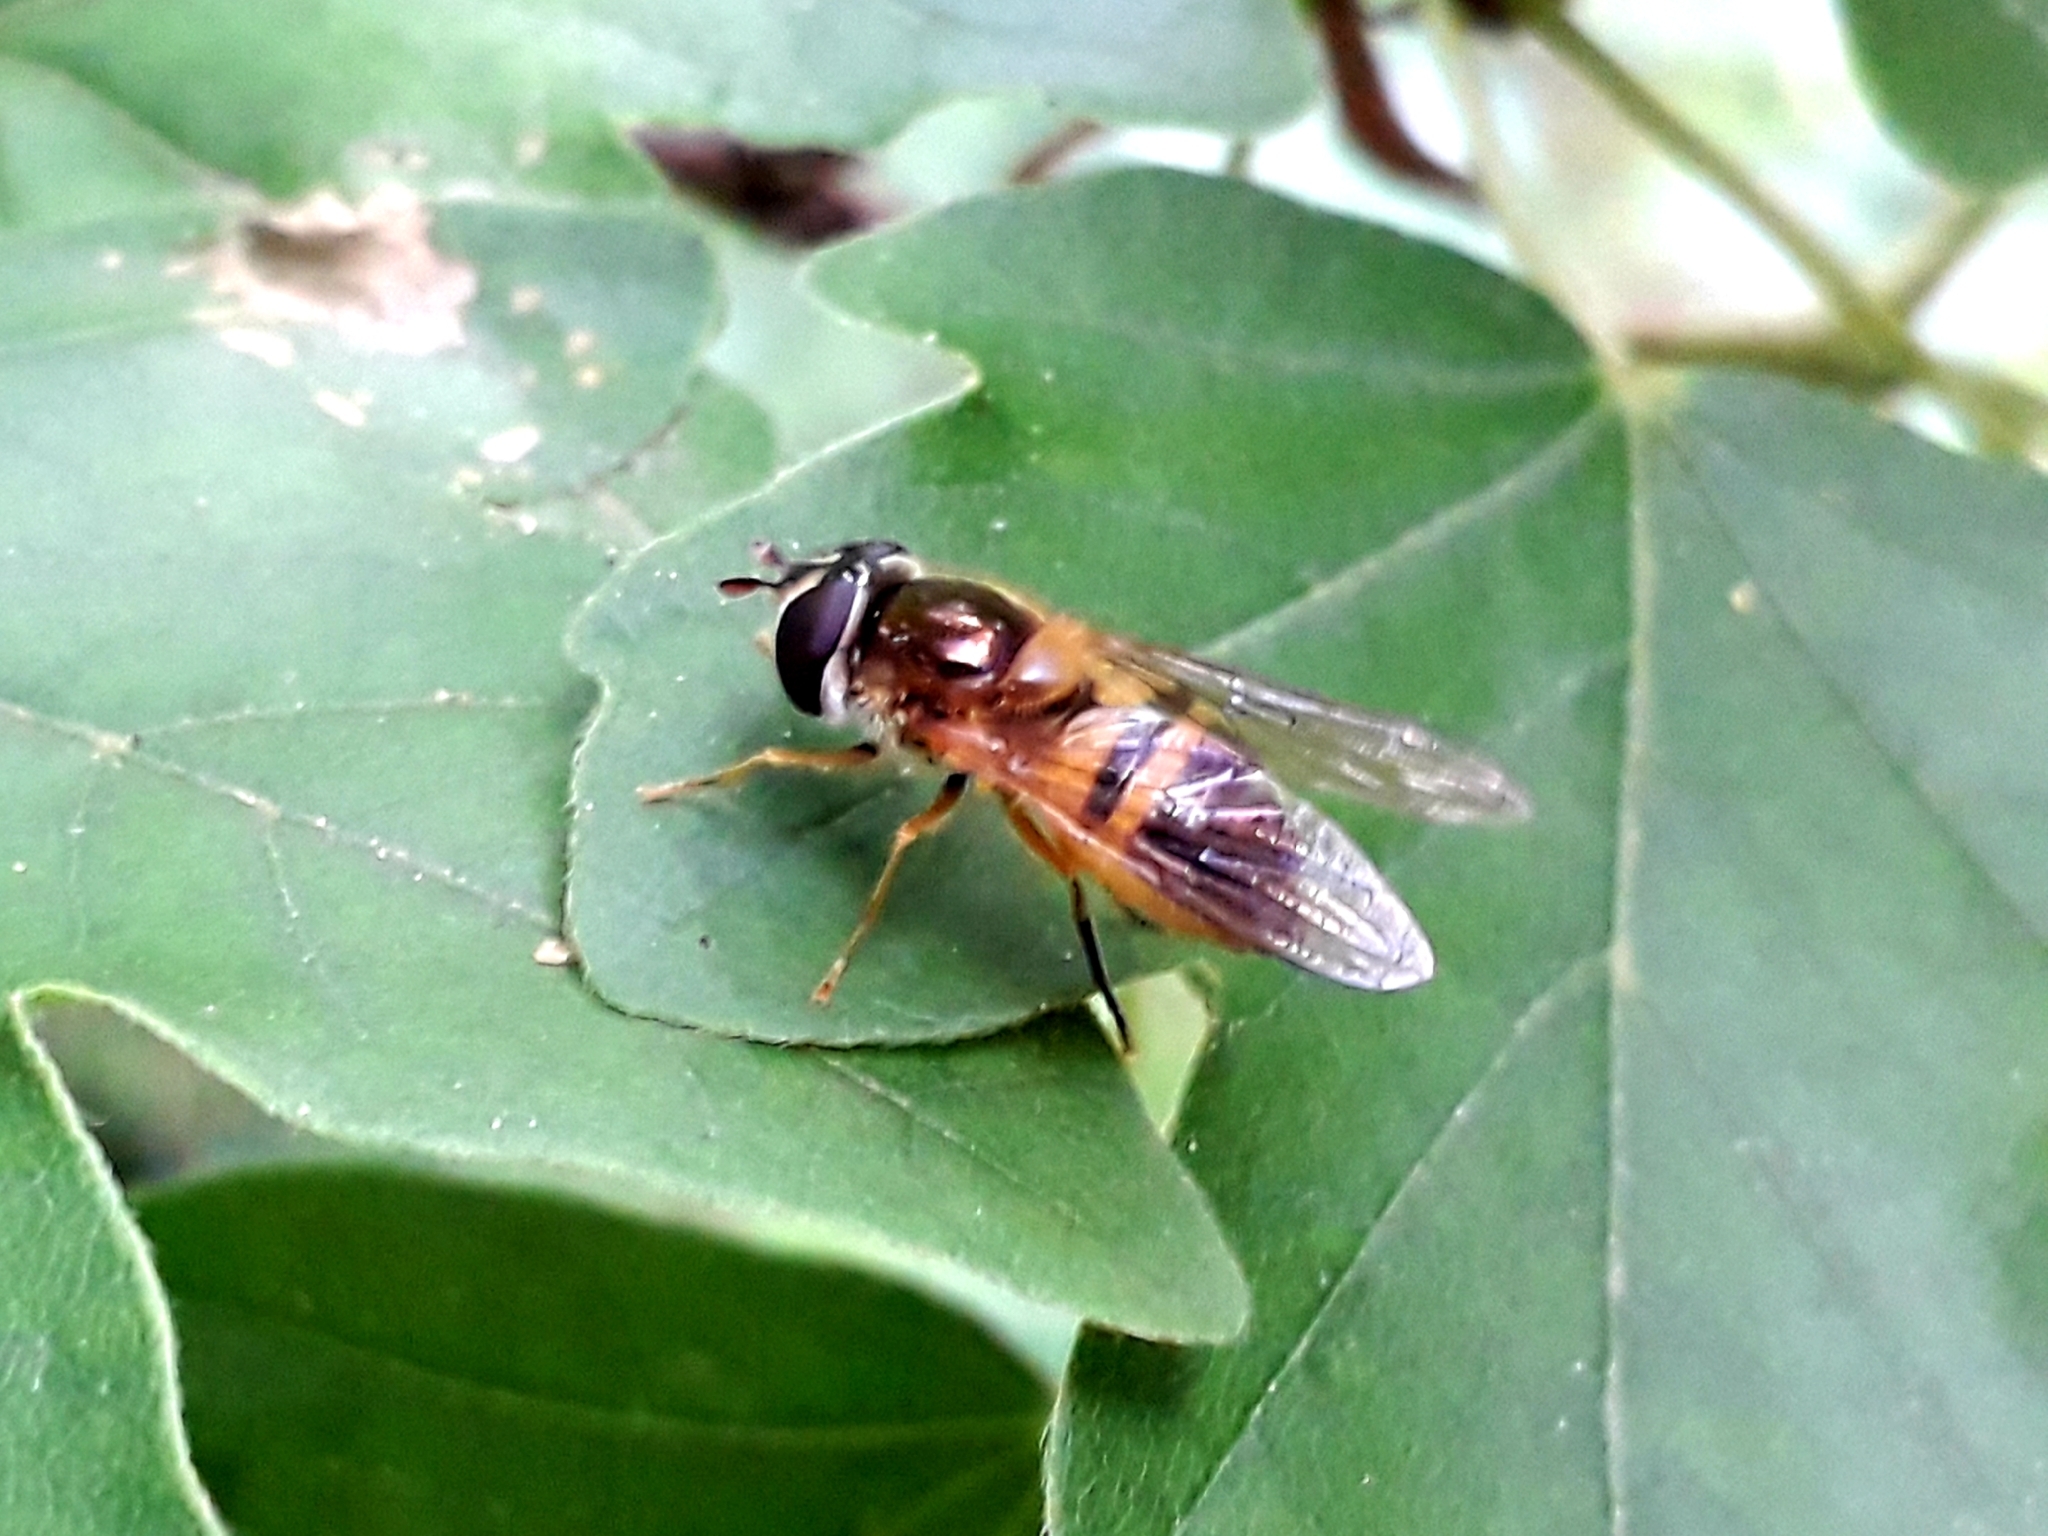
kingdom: Animalia
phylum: Arthropoda
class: Insecta
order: Diptera
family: Syrphidae
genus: Epistrophe
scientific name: Epistrophe eligans
